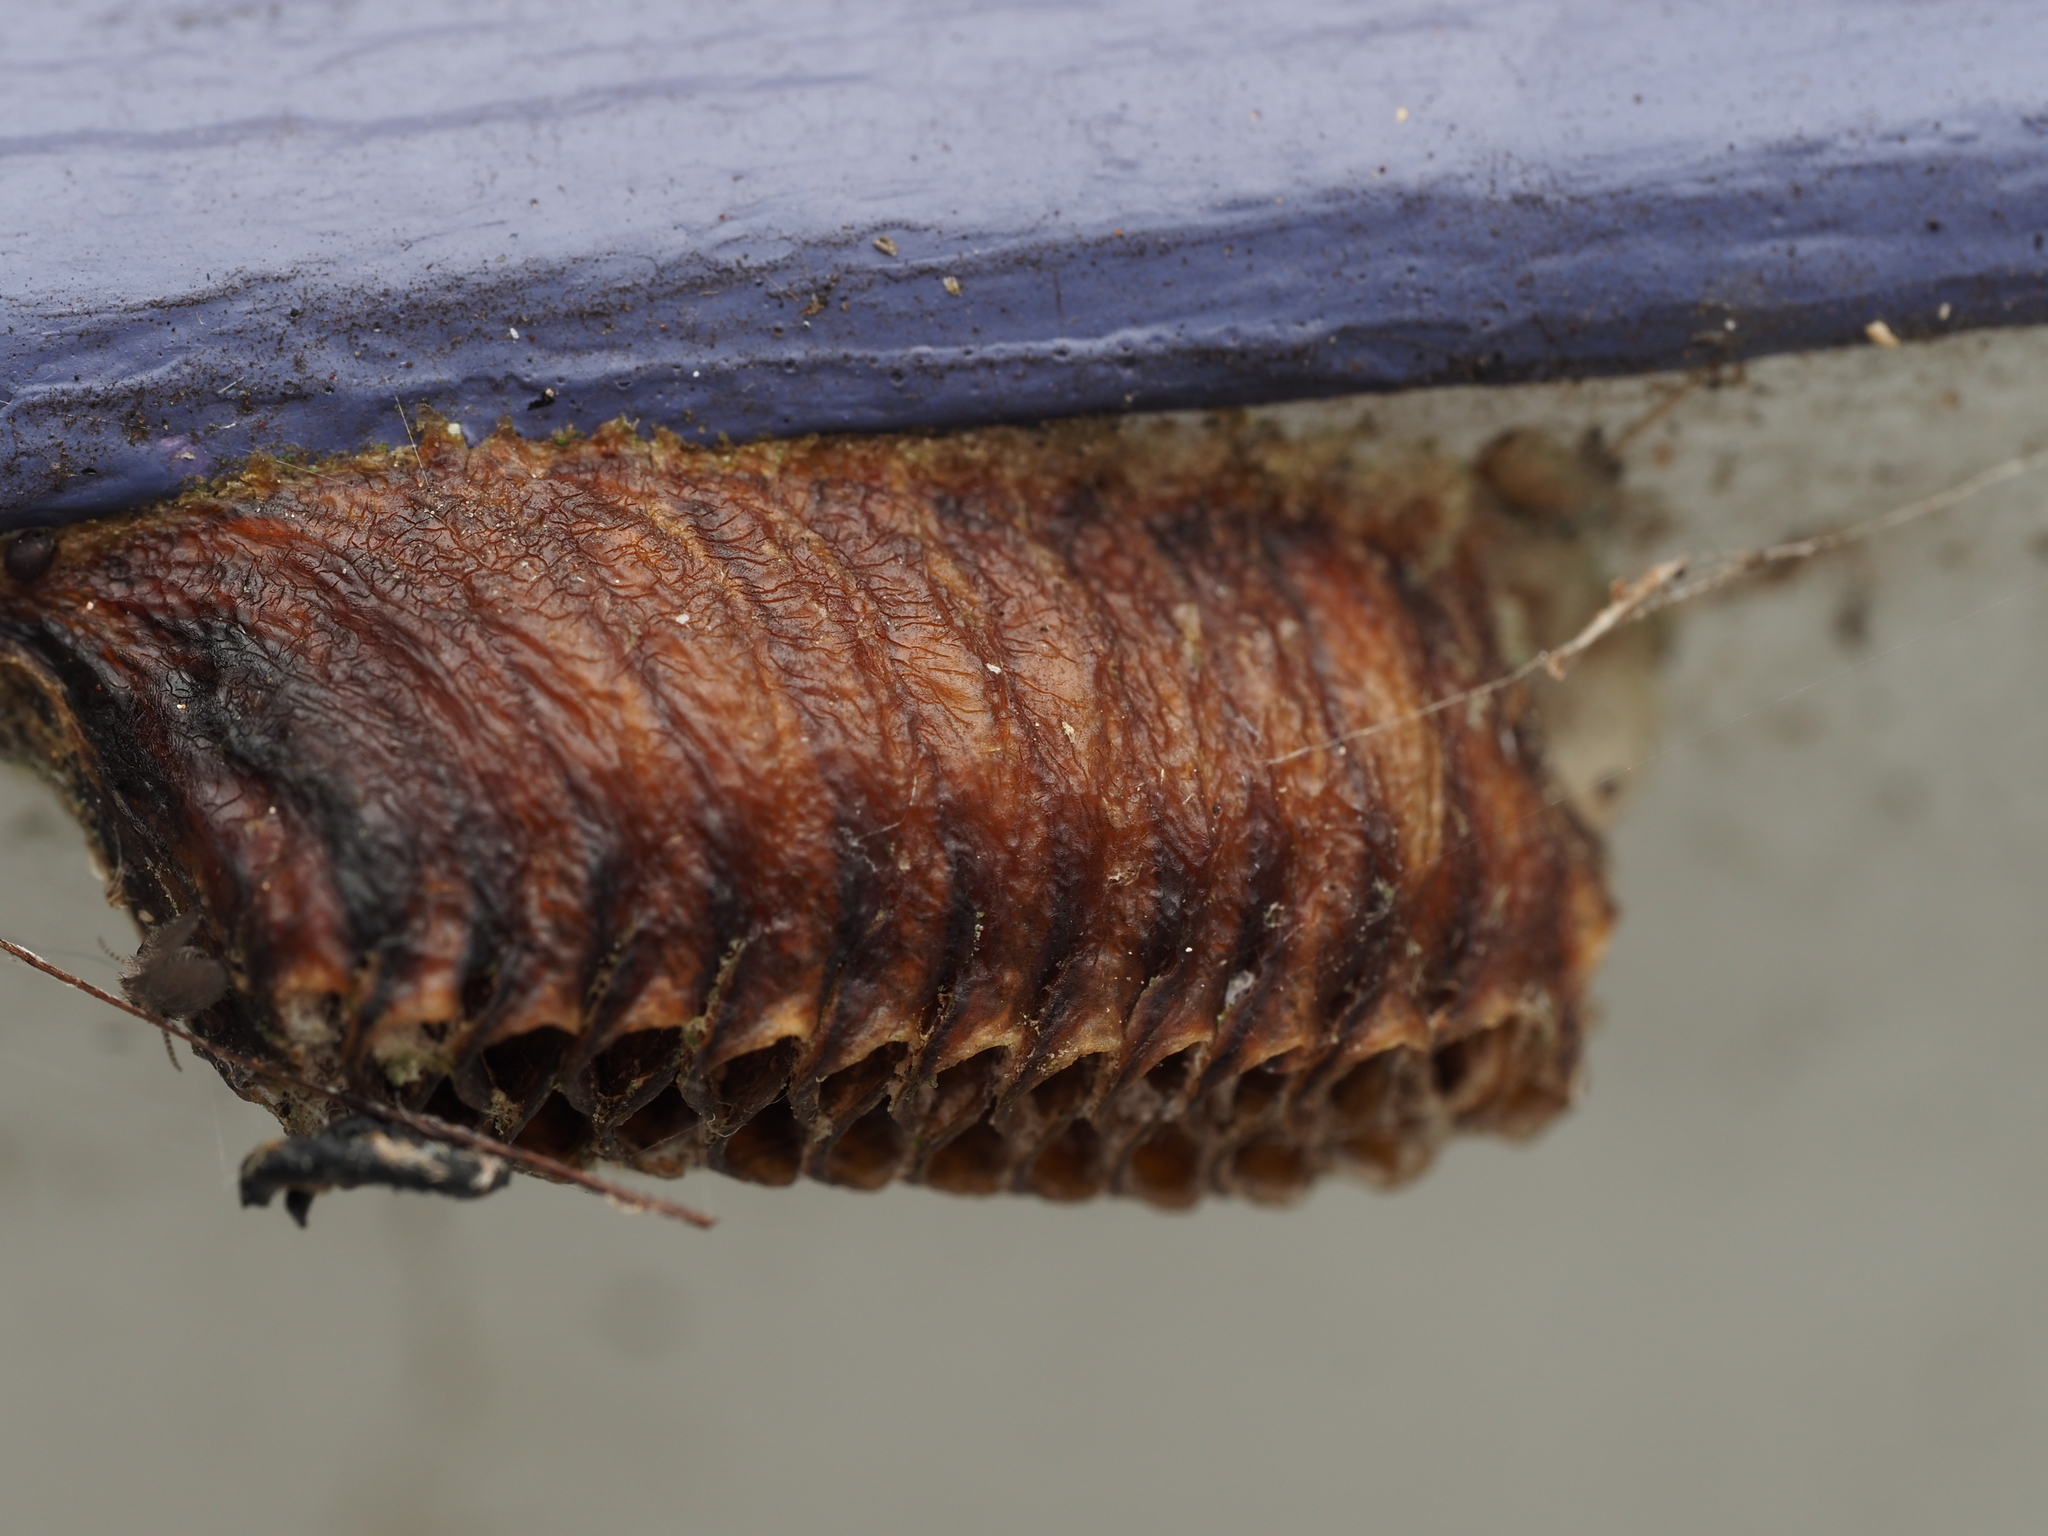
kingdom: Animalia
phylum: Arthropoda
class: Insecta
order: Mantodea
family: Mantidae
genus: Orthodera
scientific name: Orthodera novaezealandiae
